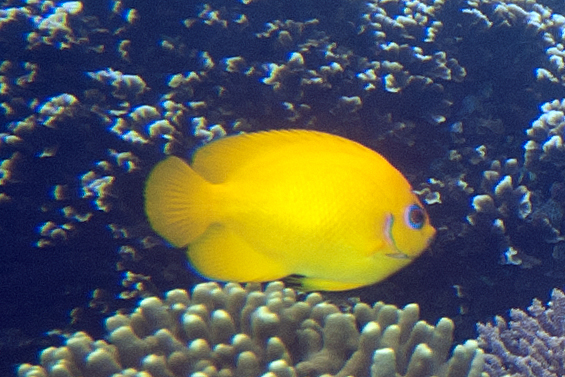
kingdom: Animalia
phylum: Chordata
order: Perciformes
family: Pomacanthidae
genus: Centropyge
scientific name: Centropyge flavissima
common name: Lemonpeel angelfish
